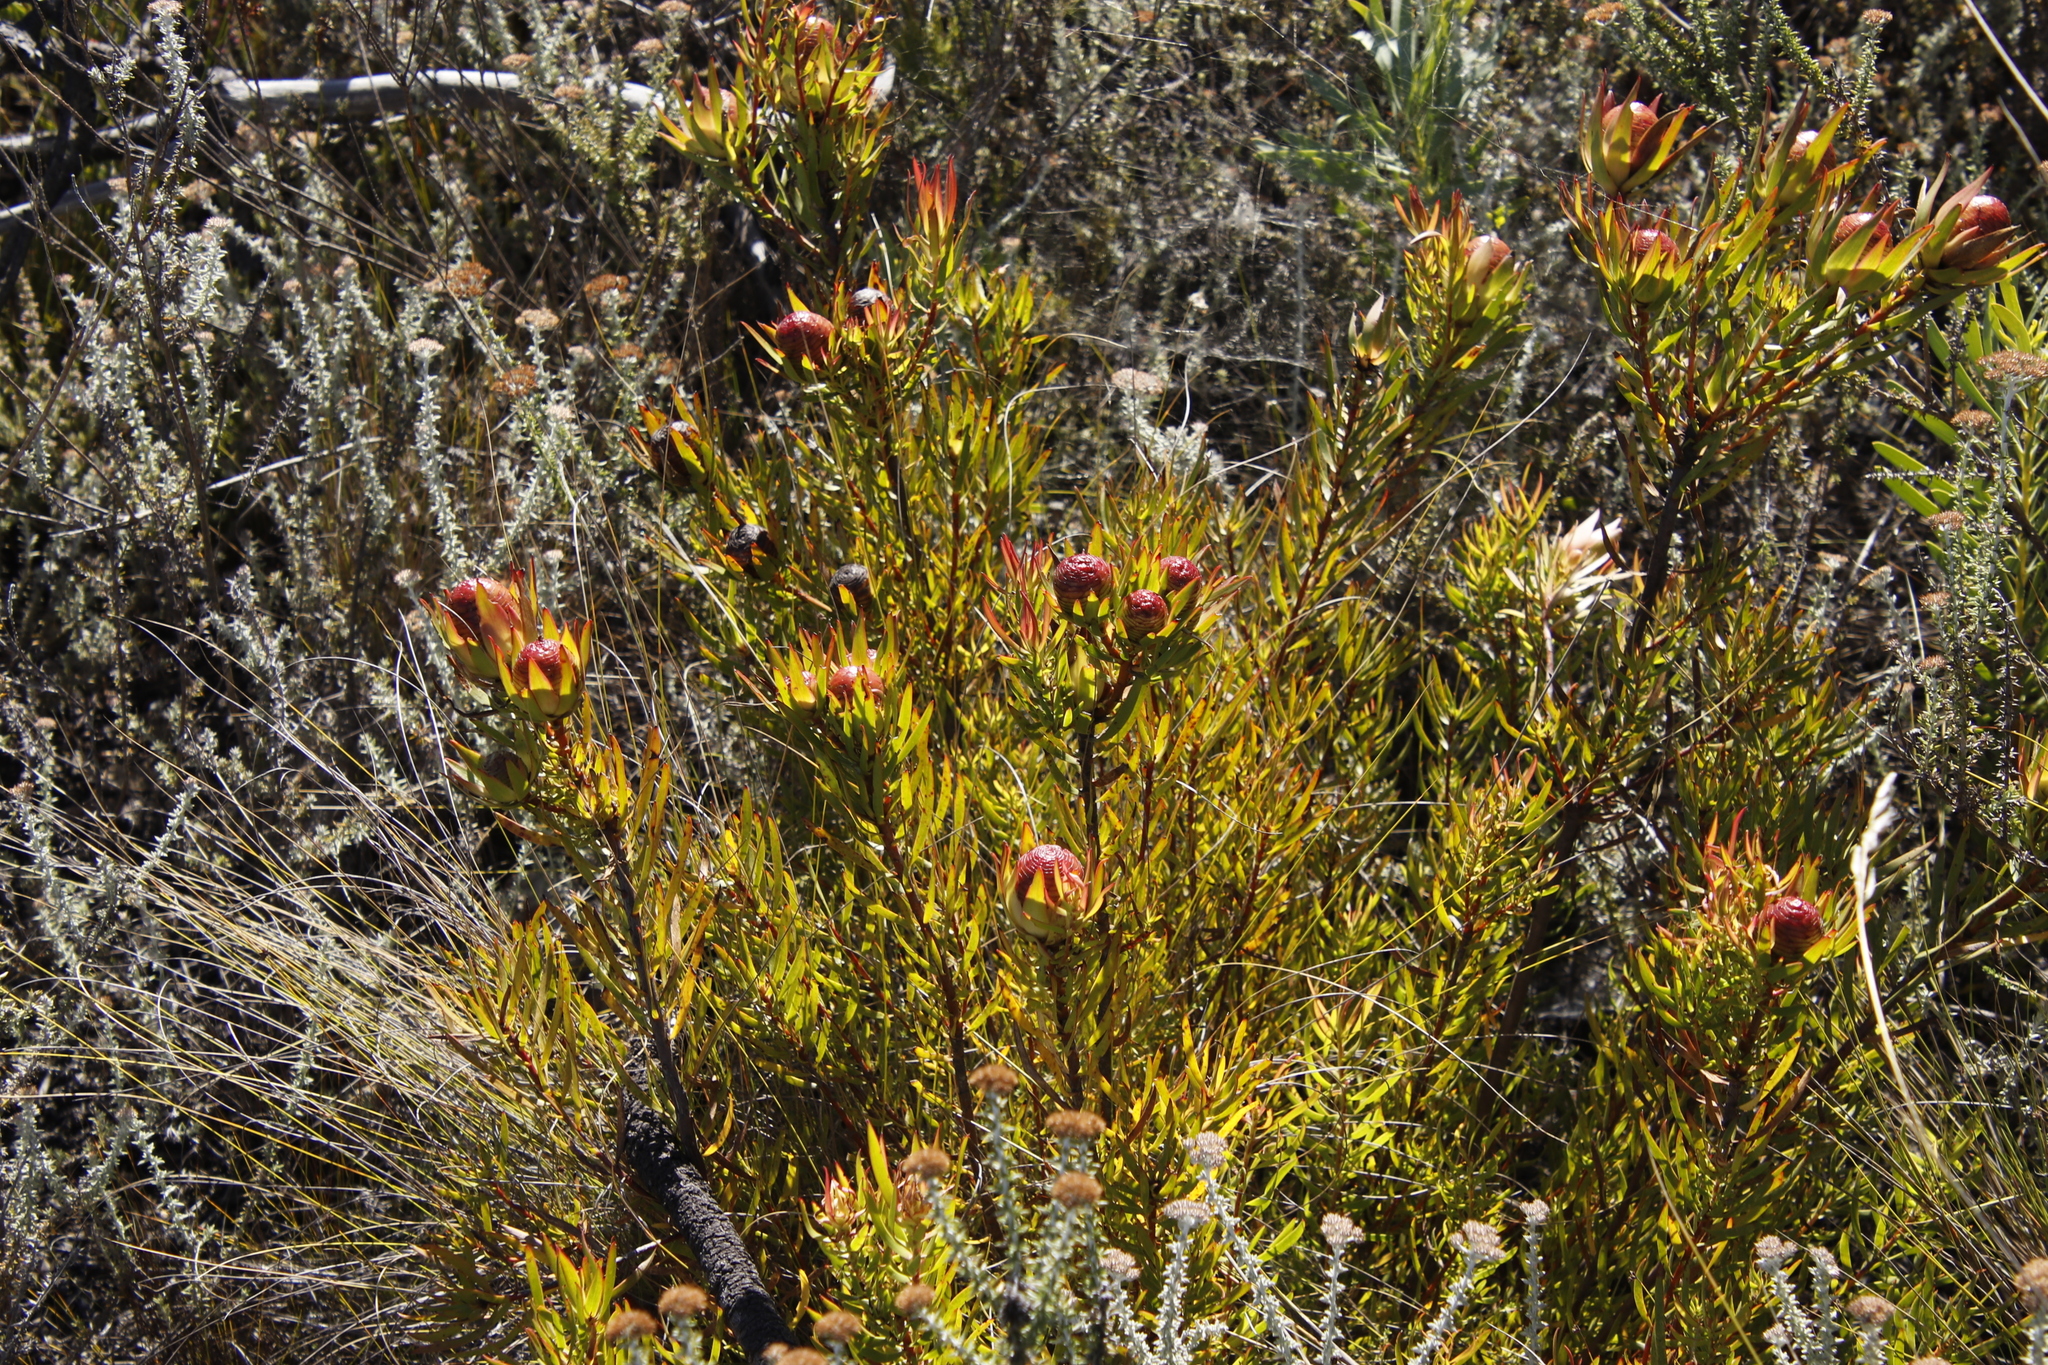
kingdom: Plantae
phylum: Tracheophyta
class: Magnoliopsida
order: Proteales
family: Proteaceae
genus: Leucadendron
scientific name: Leucadendron spissifolium
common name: Spear-leaf conebush
